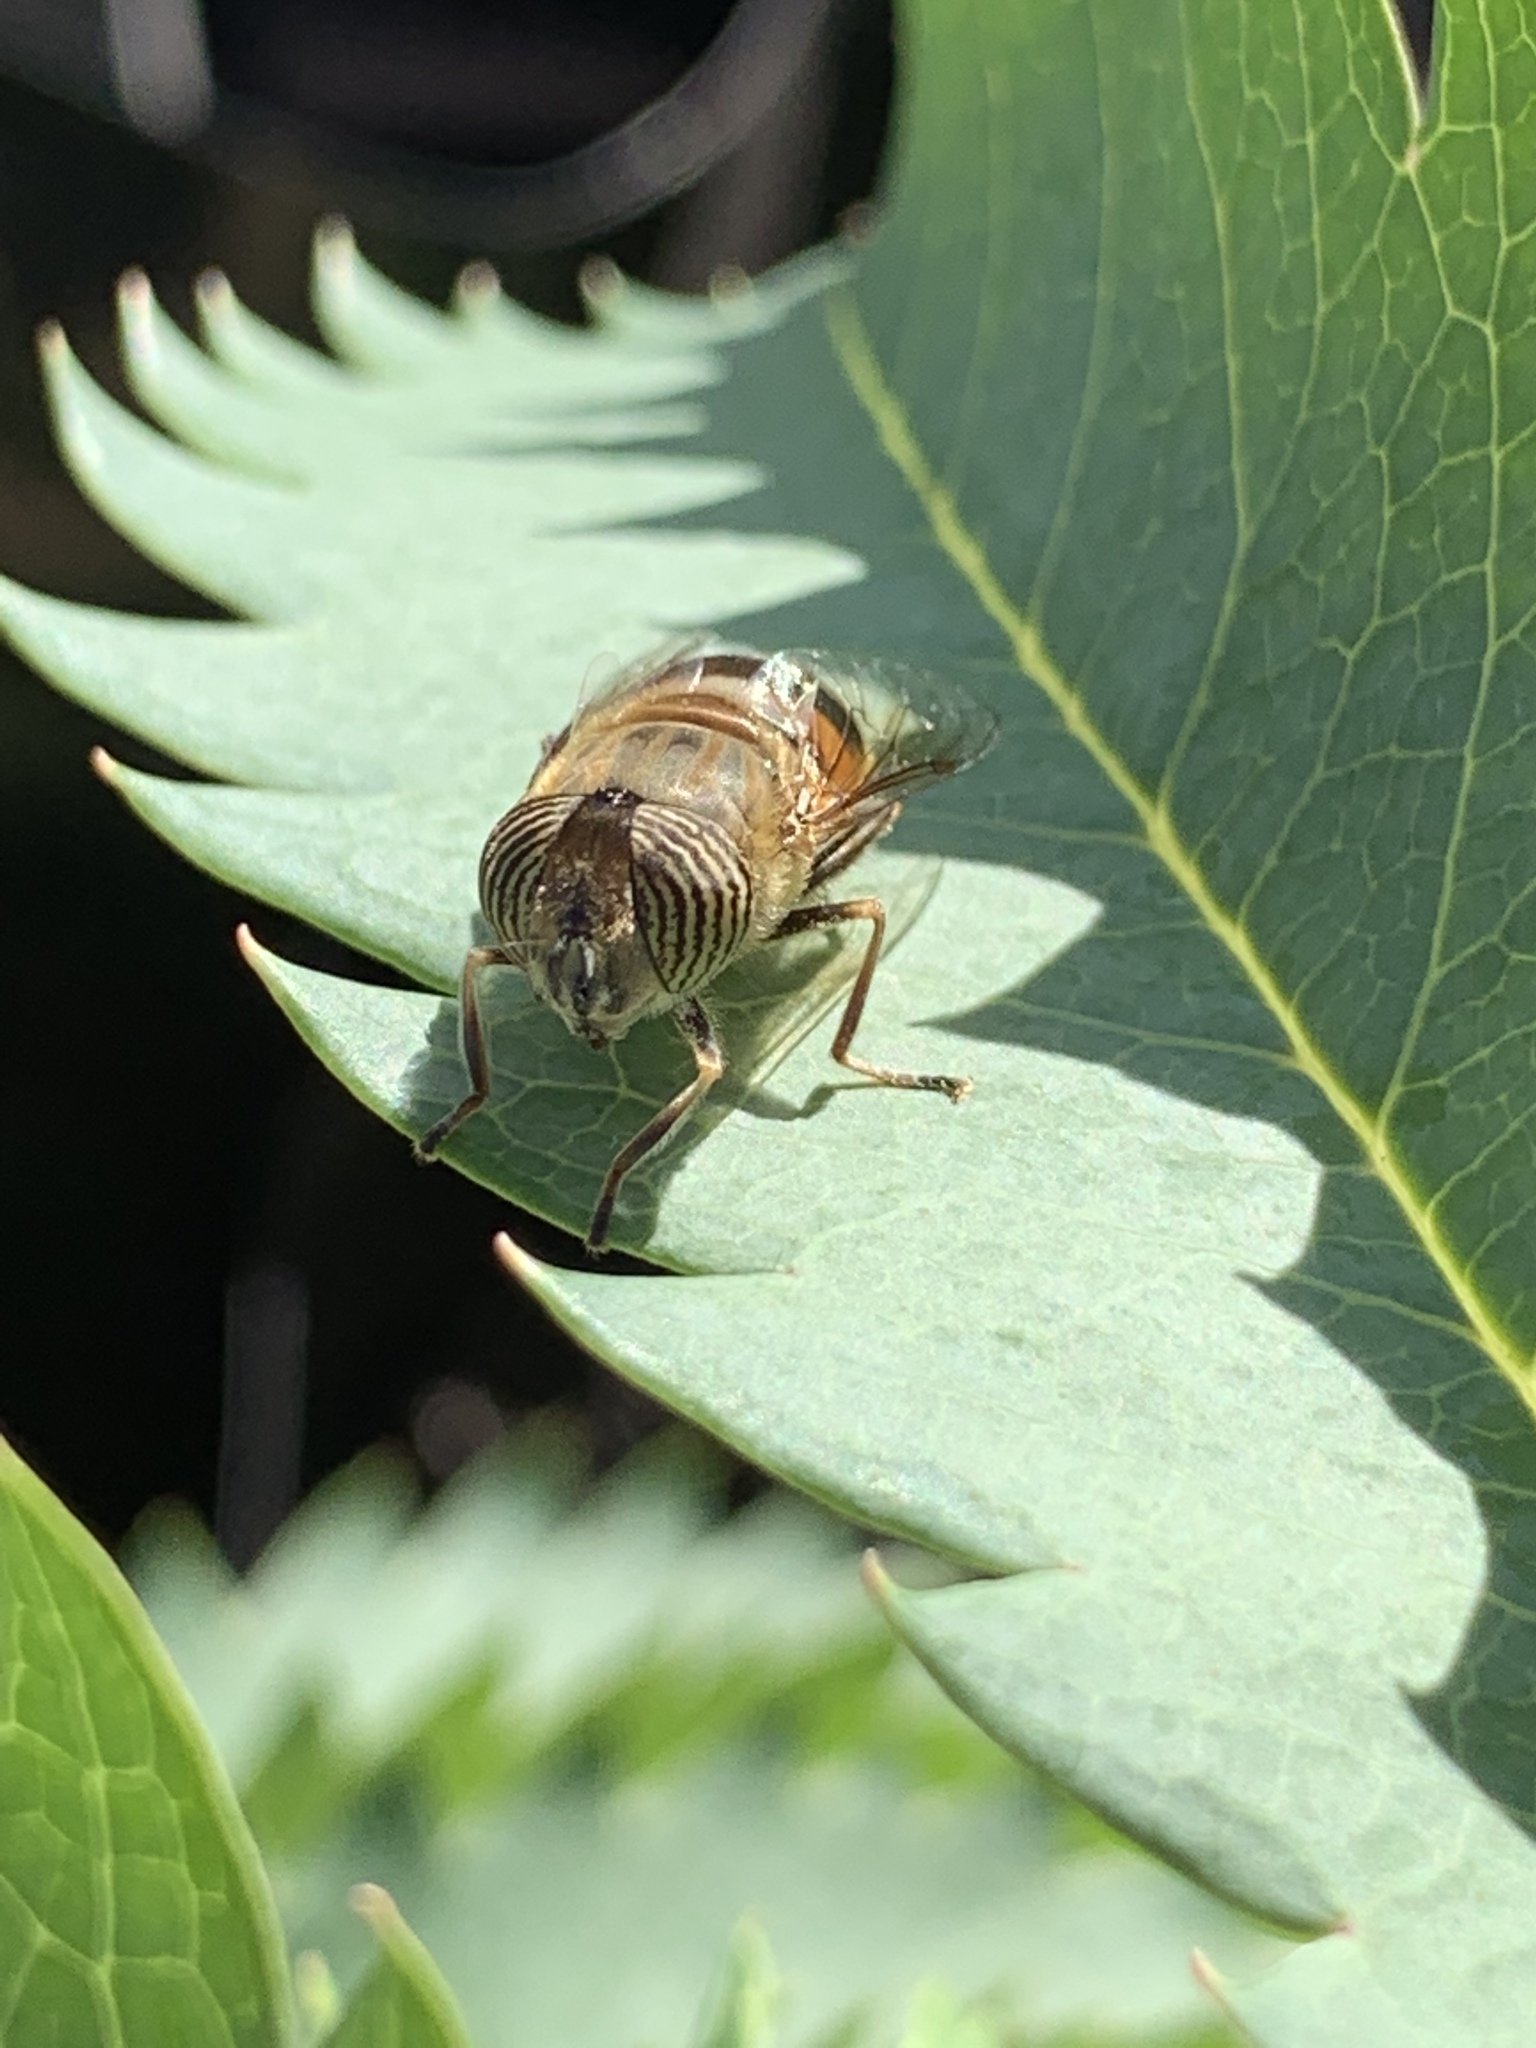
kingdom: Animalia
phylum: Arthropoda
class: Insecta
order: Diptera
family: Syrphidae
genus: Eristalinus
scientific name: Eristalinus taeniops
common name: Syrphid fly
